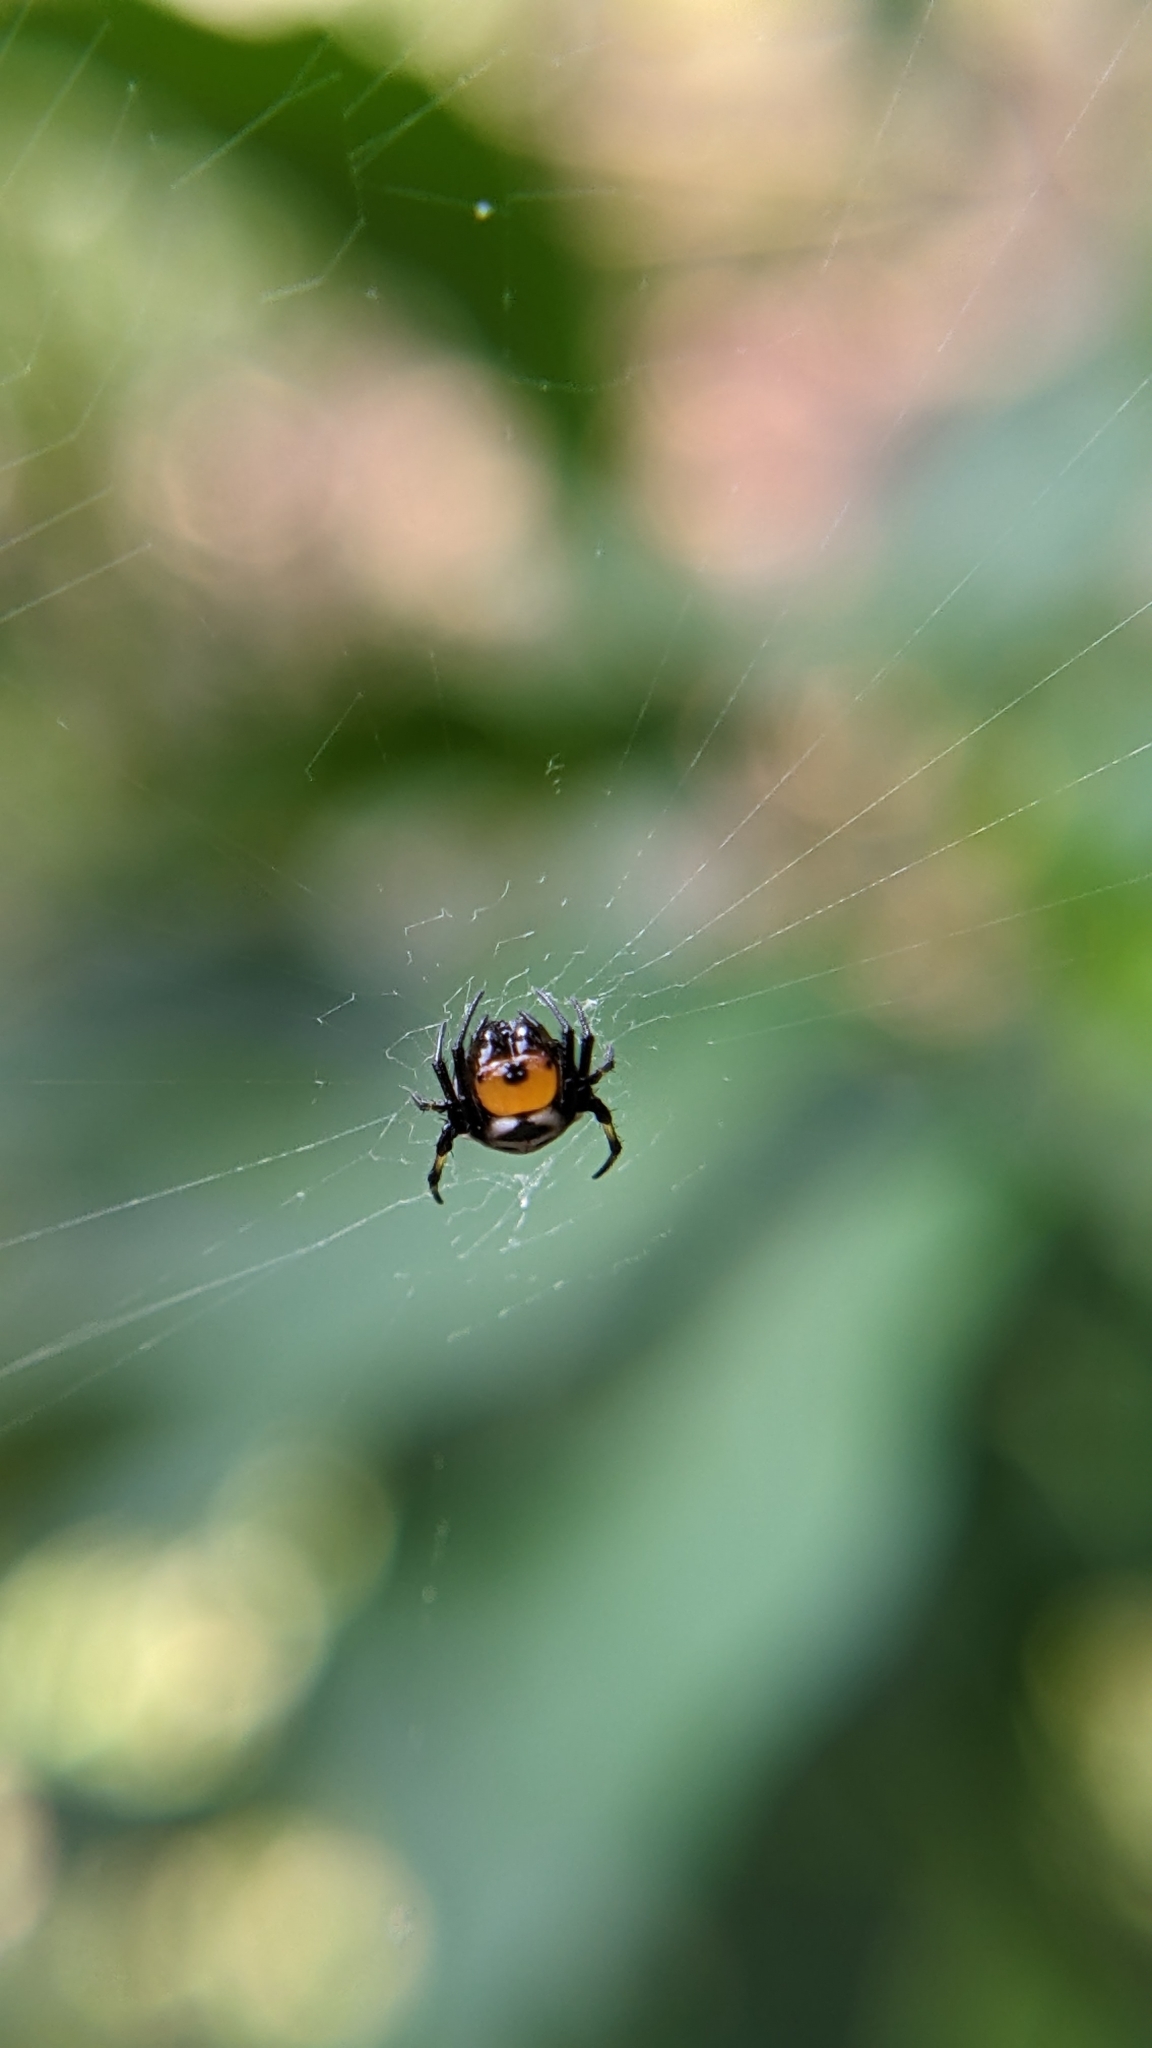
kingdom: Animalia
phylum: Arthropoda
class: Arachnida
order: Araneae
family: Araneidae
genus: Anepsion
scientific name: Anepsion maritatum
